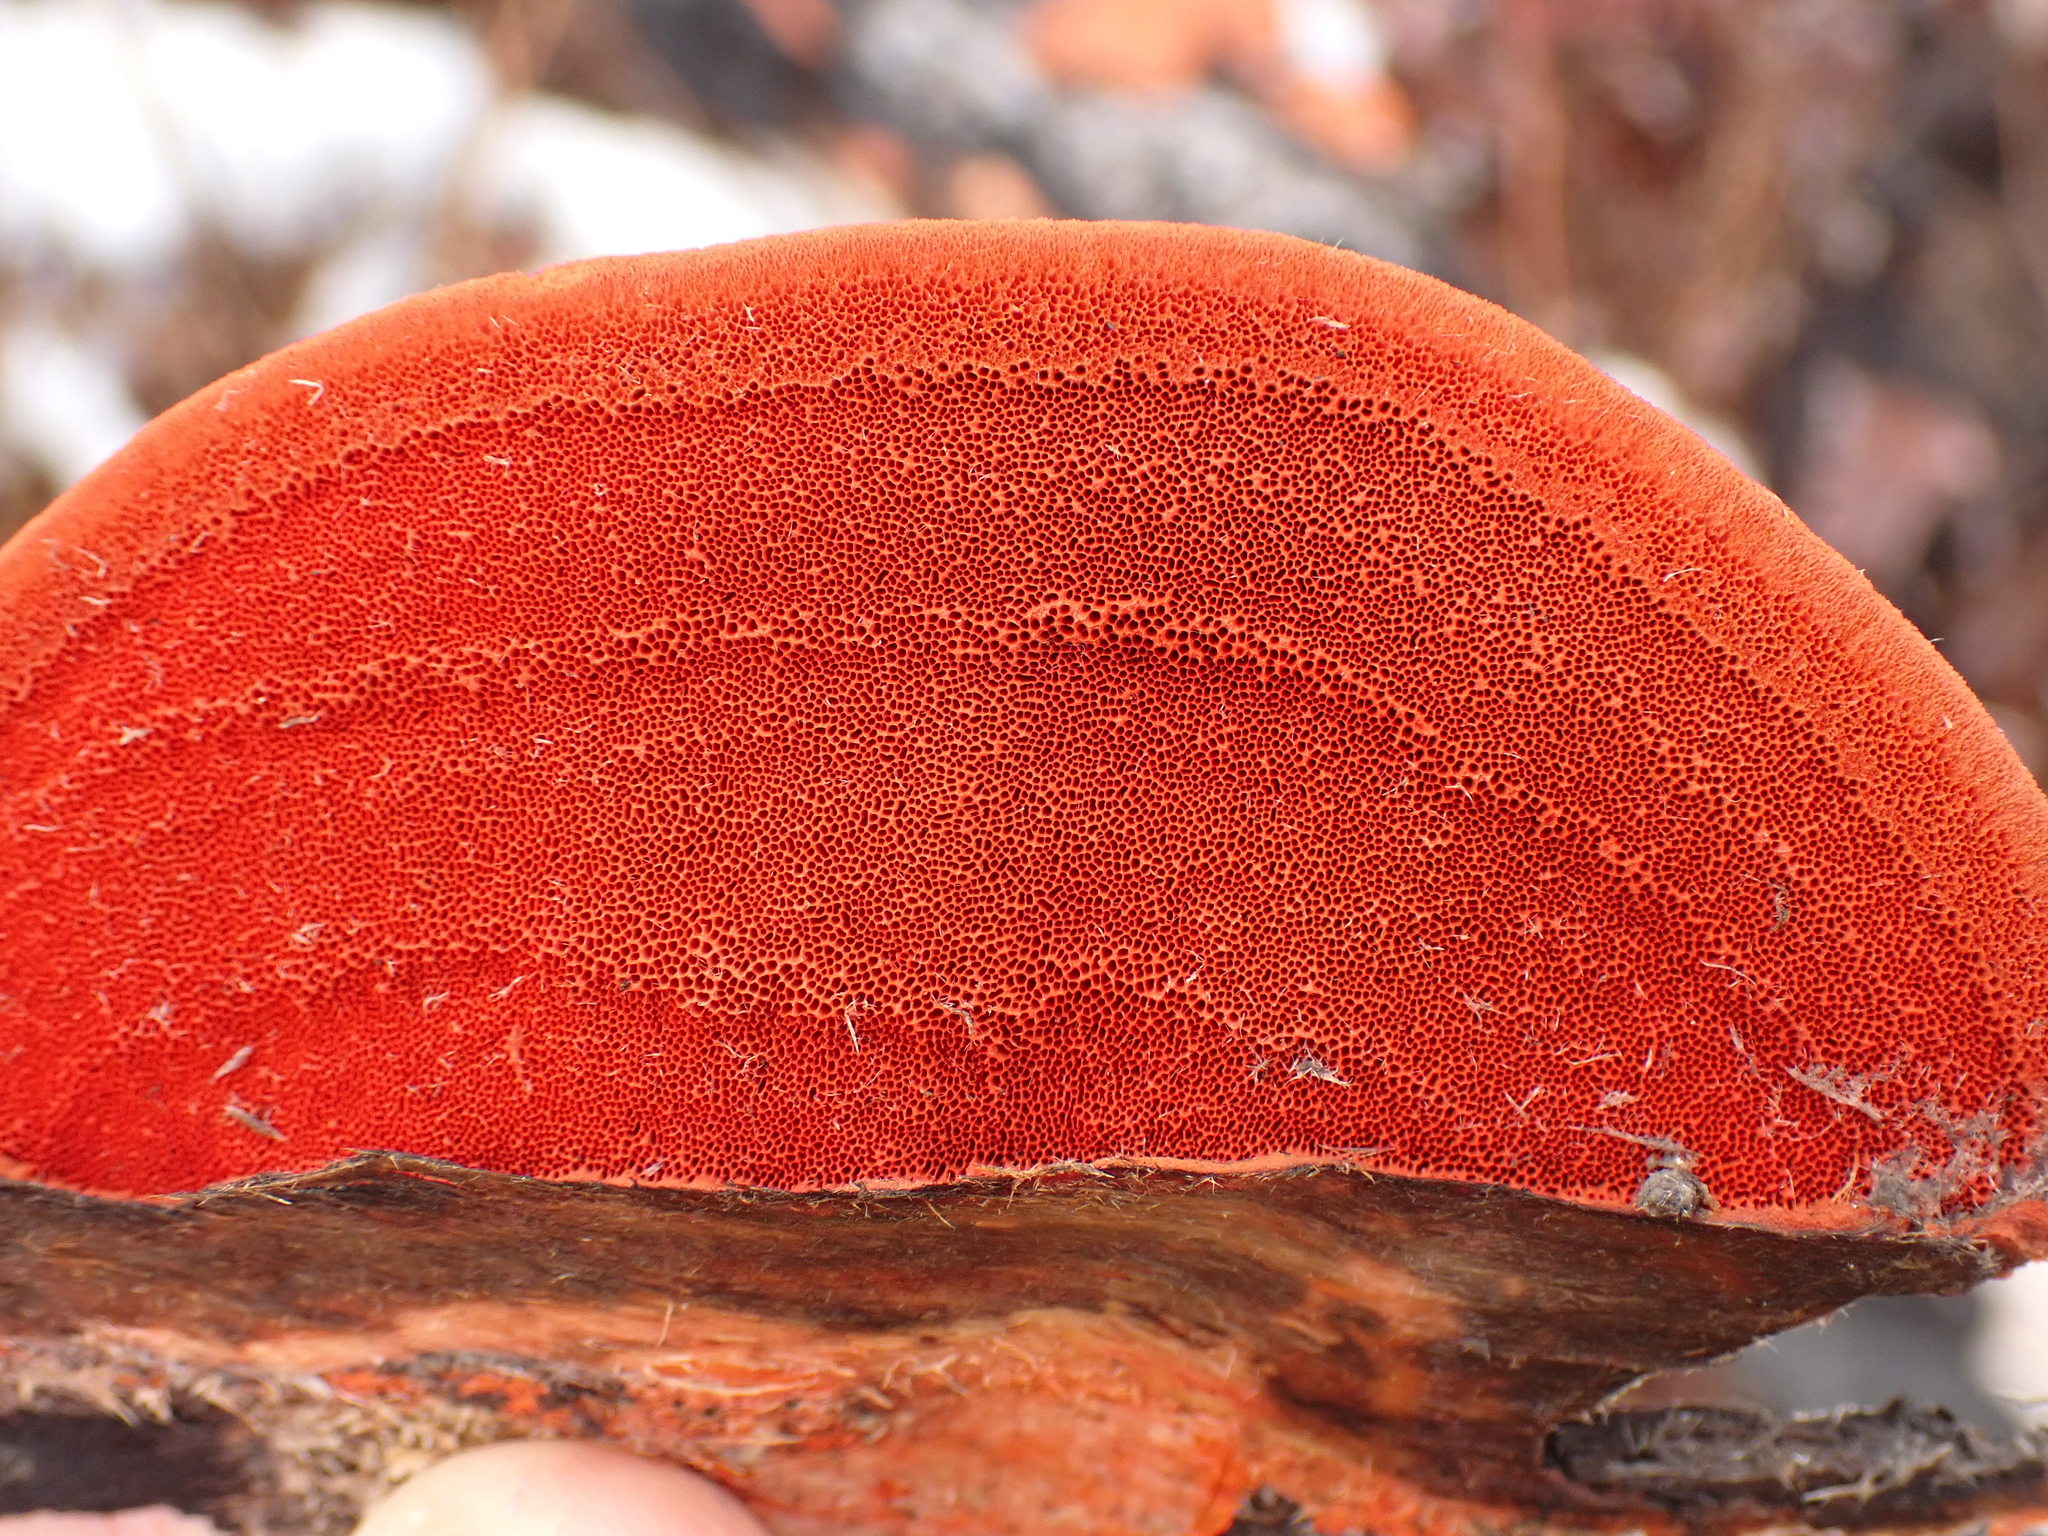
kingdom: Fungi
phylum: Basidiomycota
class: Agaricomycetes
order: Polyporales
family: Polyporaceae
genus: Trametes
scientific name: Trametes cinnabarina
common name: Northern cinnabar polypore
